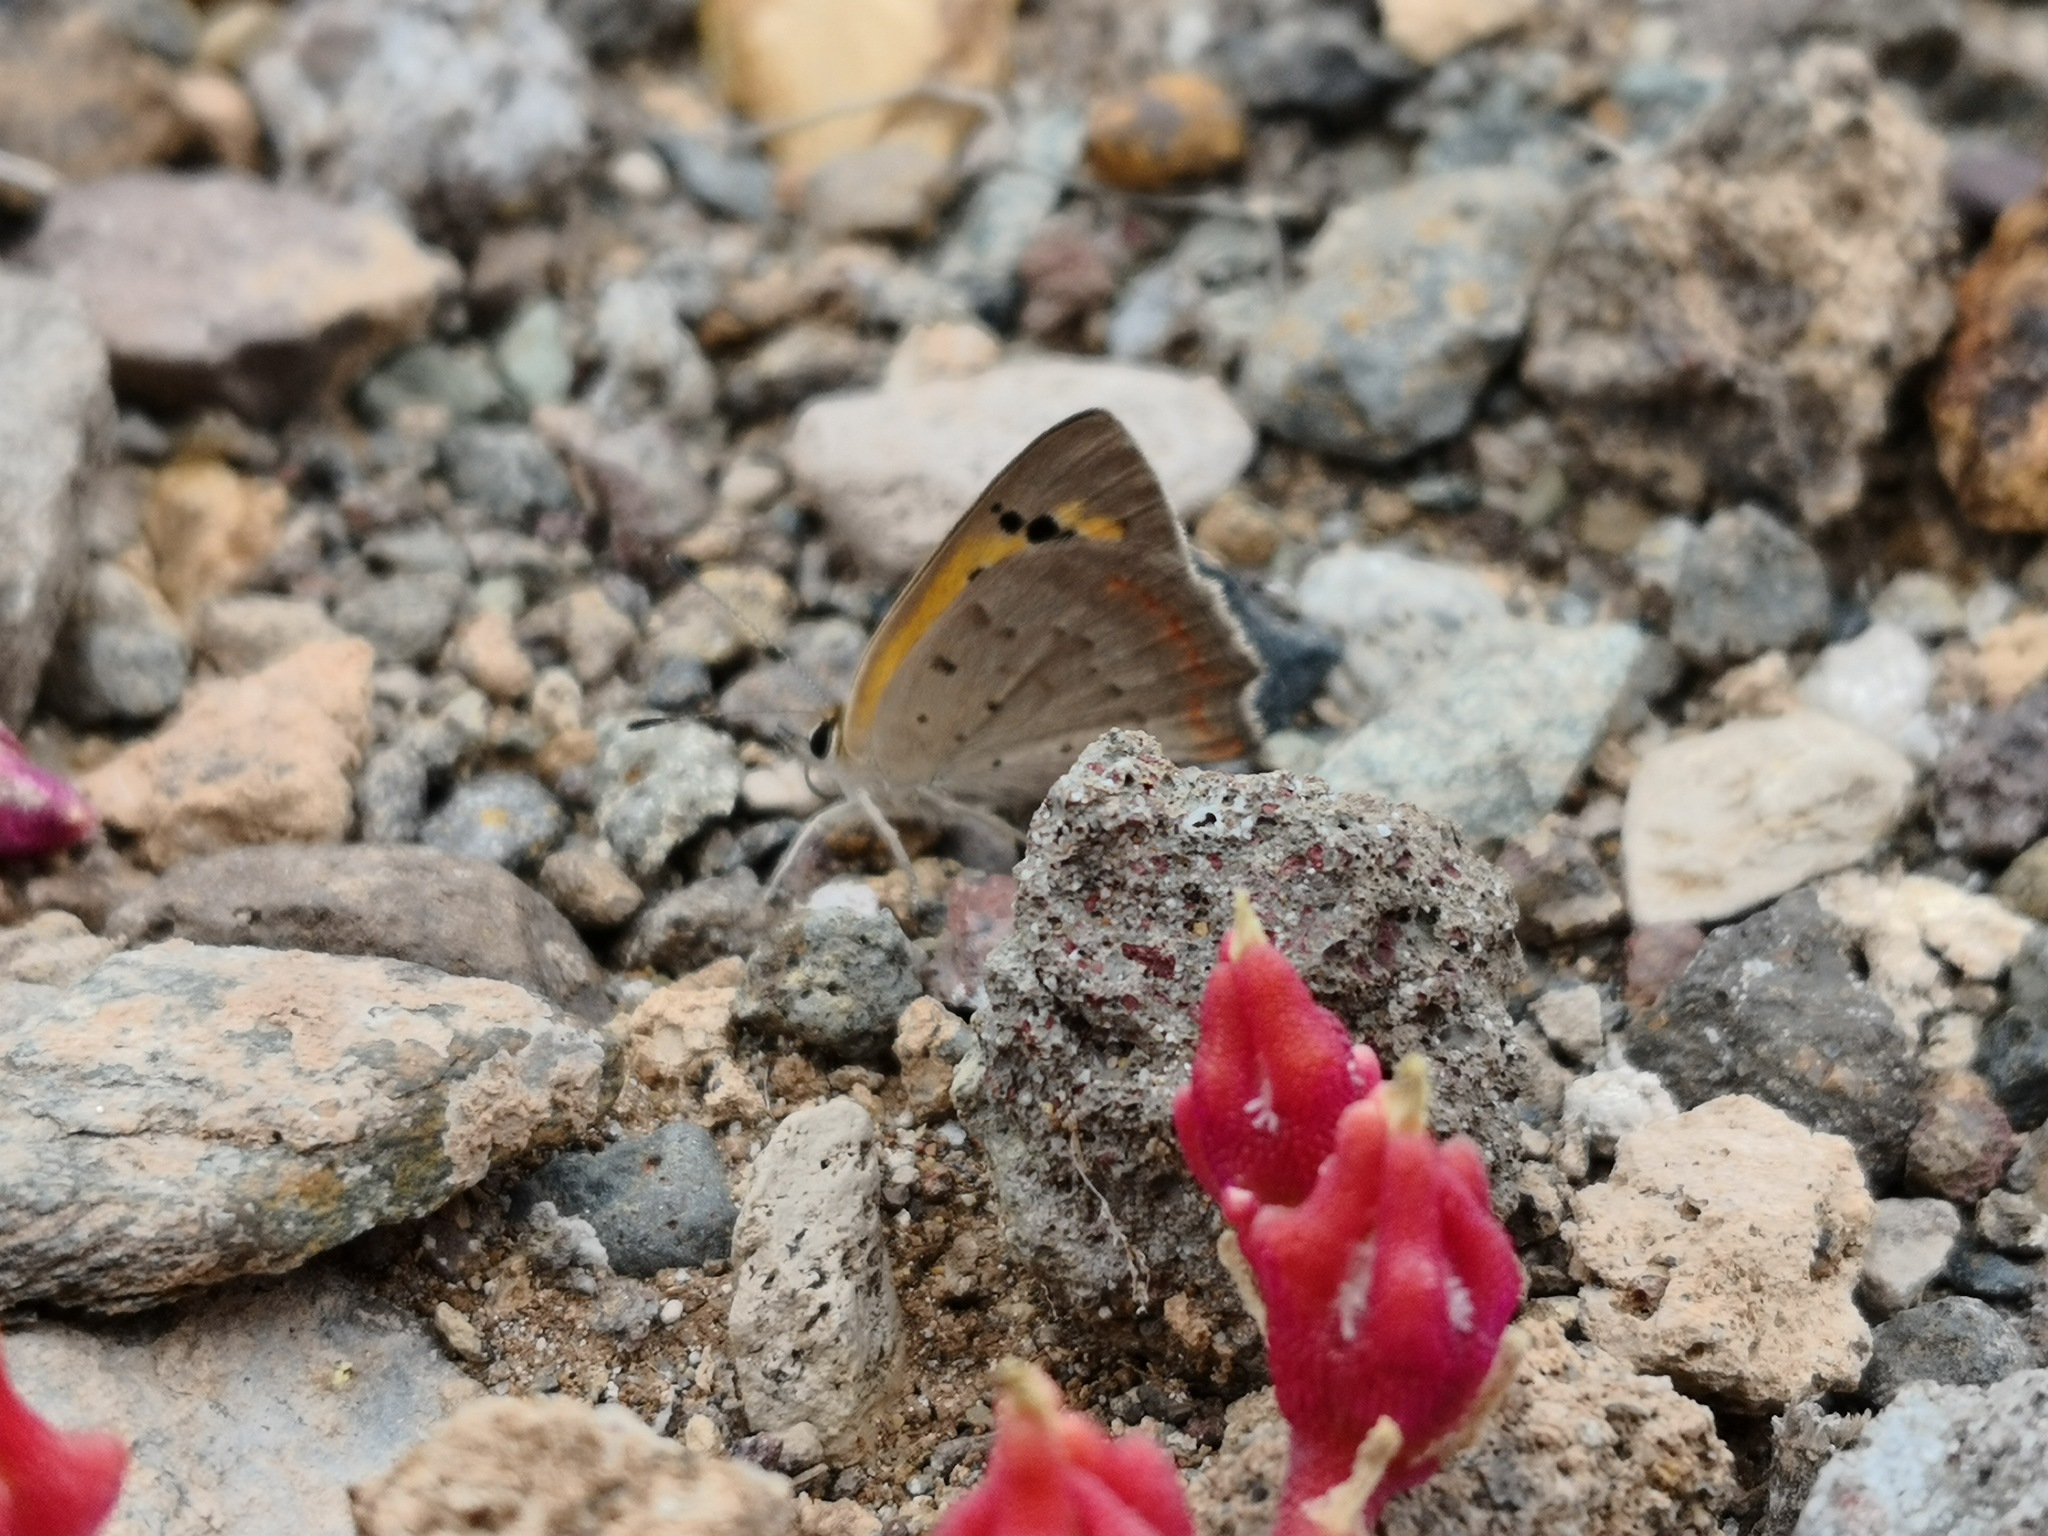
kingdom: Animalia
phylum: Arthropoda
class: Insecta
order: Lepidoptera
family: Lycaenidae
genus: Lycaena
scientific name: Lycaena phlaeas
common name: Small copper
